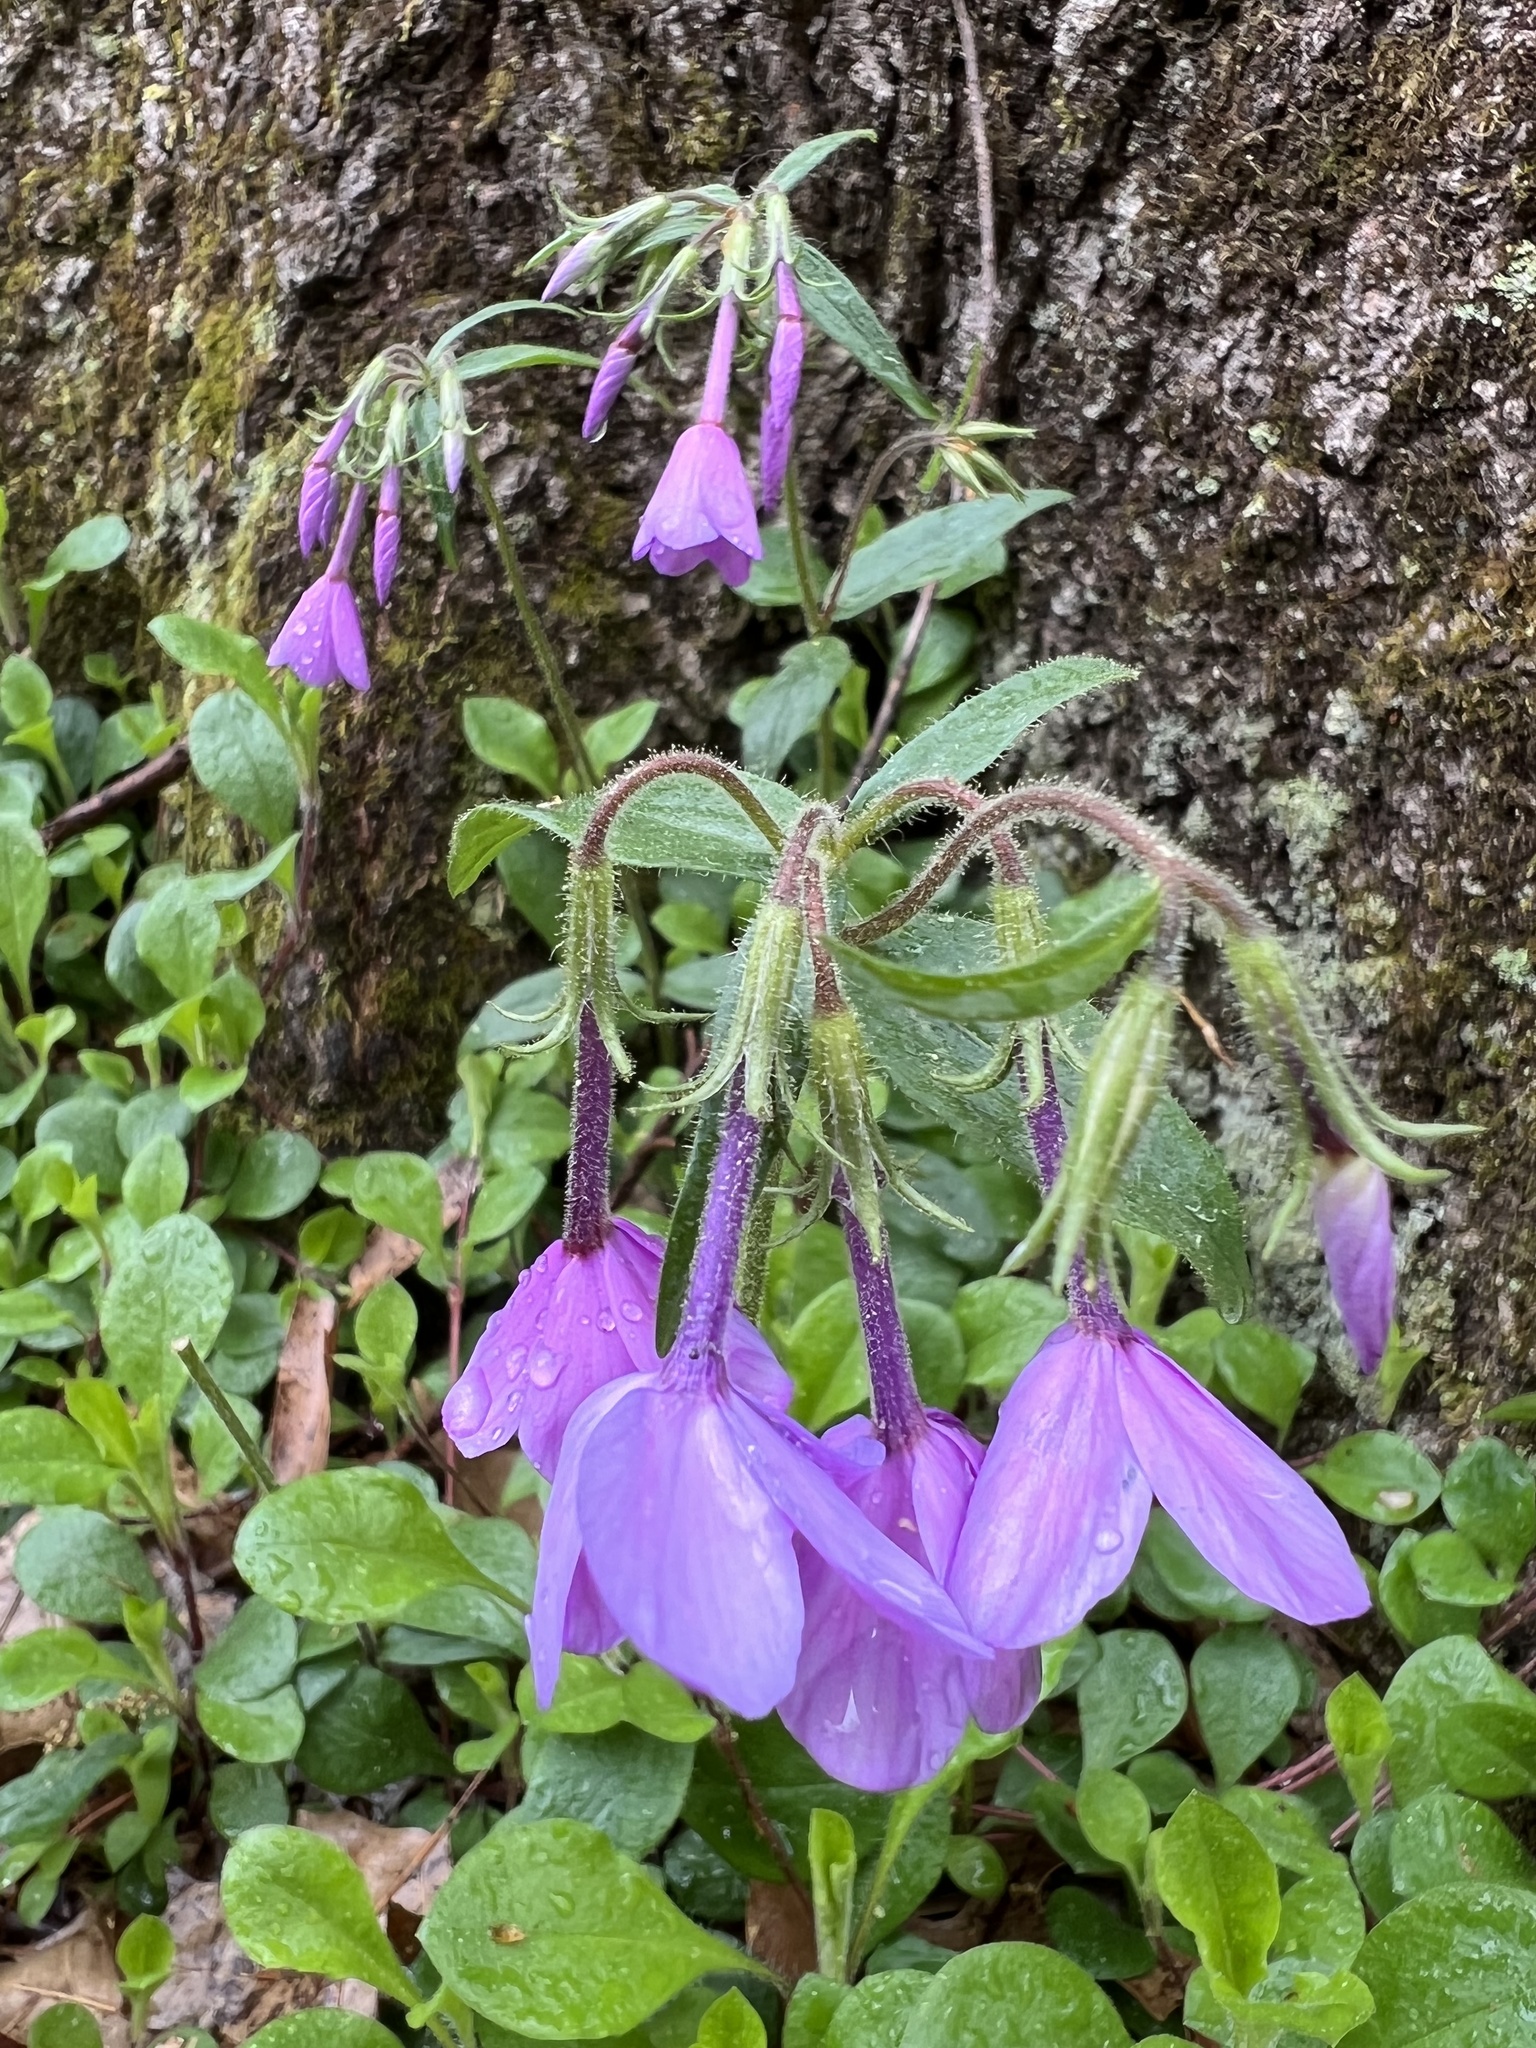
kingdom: Plantae
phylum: Tracheophyta
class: Magnoliopsida
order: Ericales
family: Polemoniaceae
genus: Phlox
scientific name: Phlox stolonifera
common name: Creeping phlox
